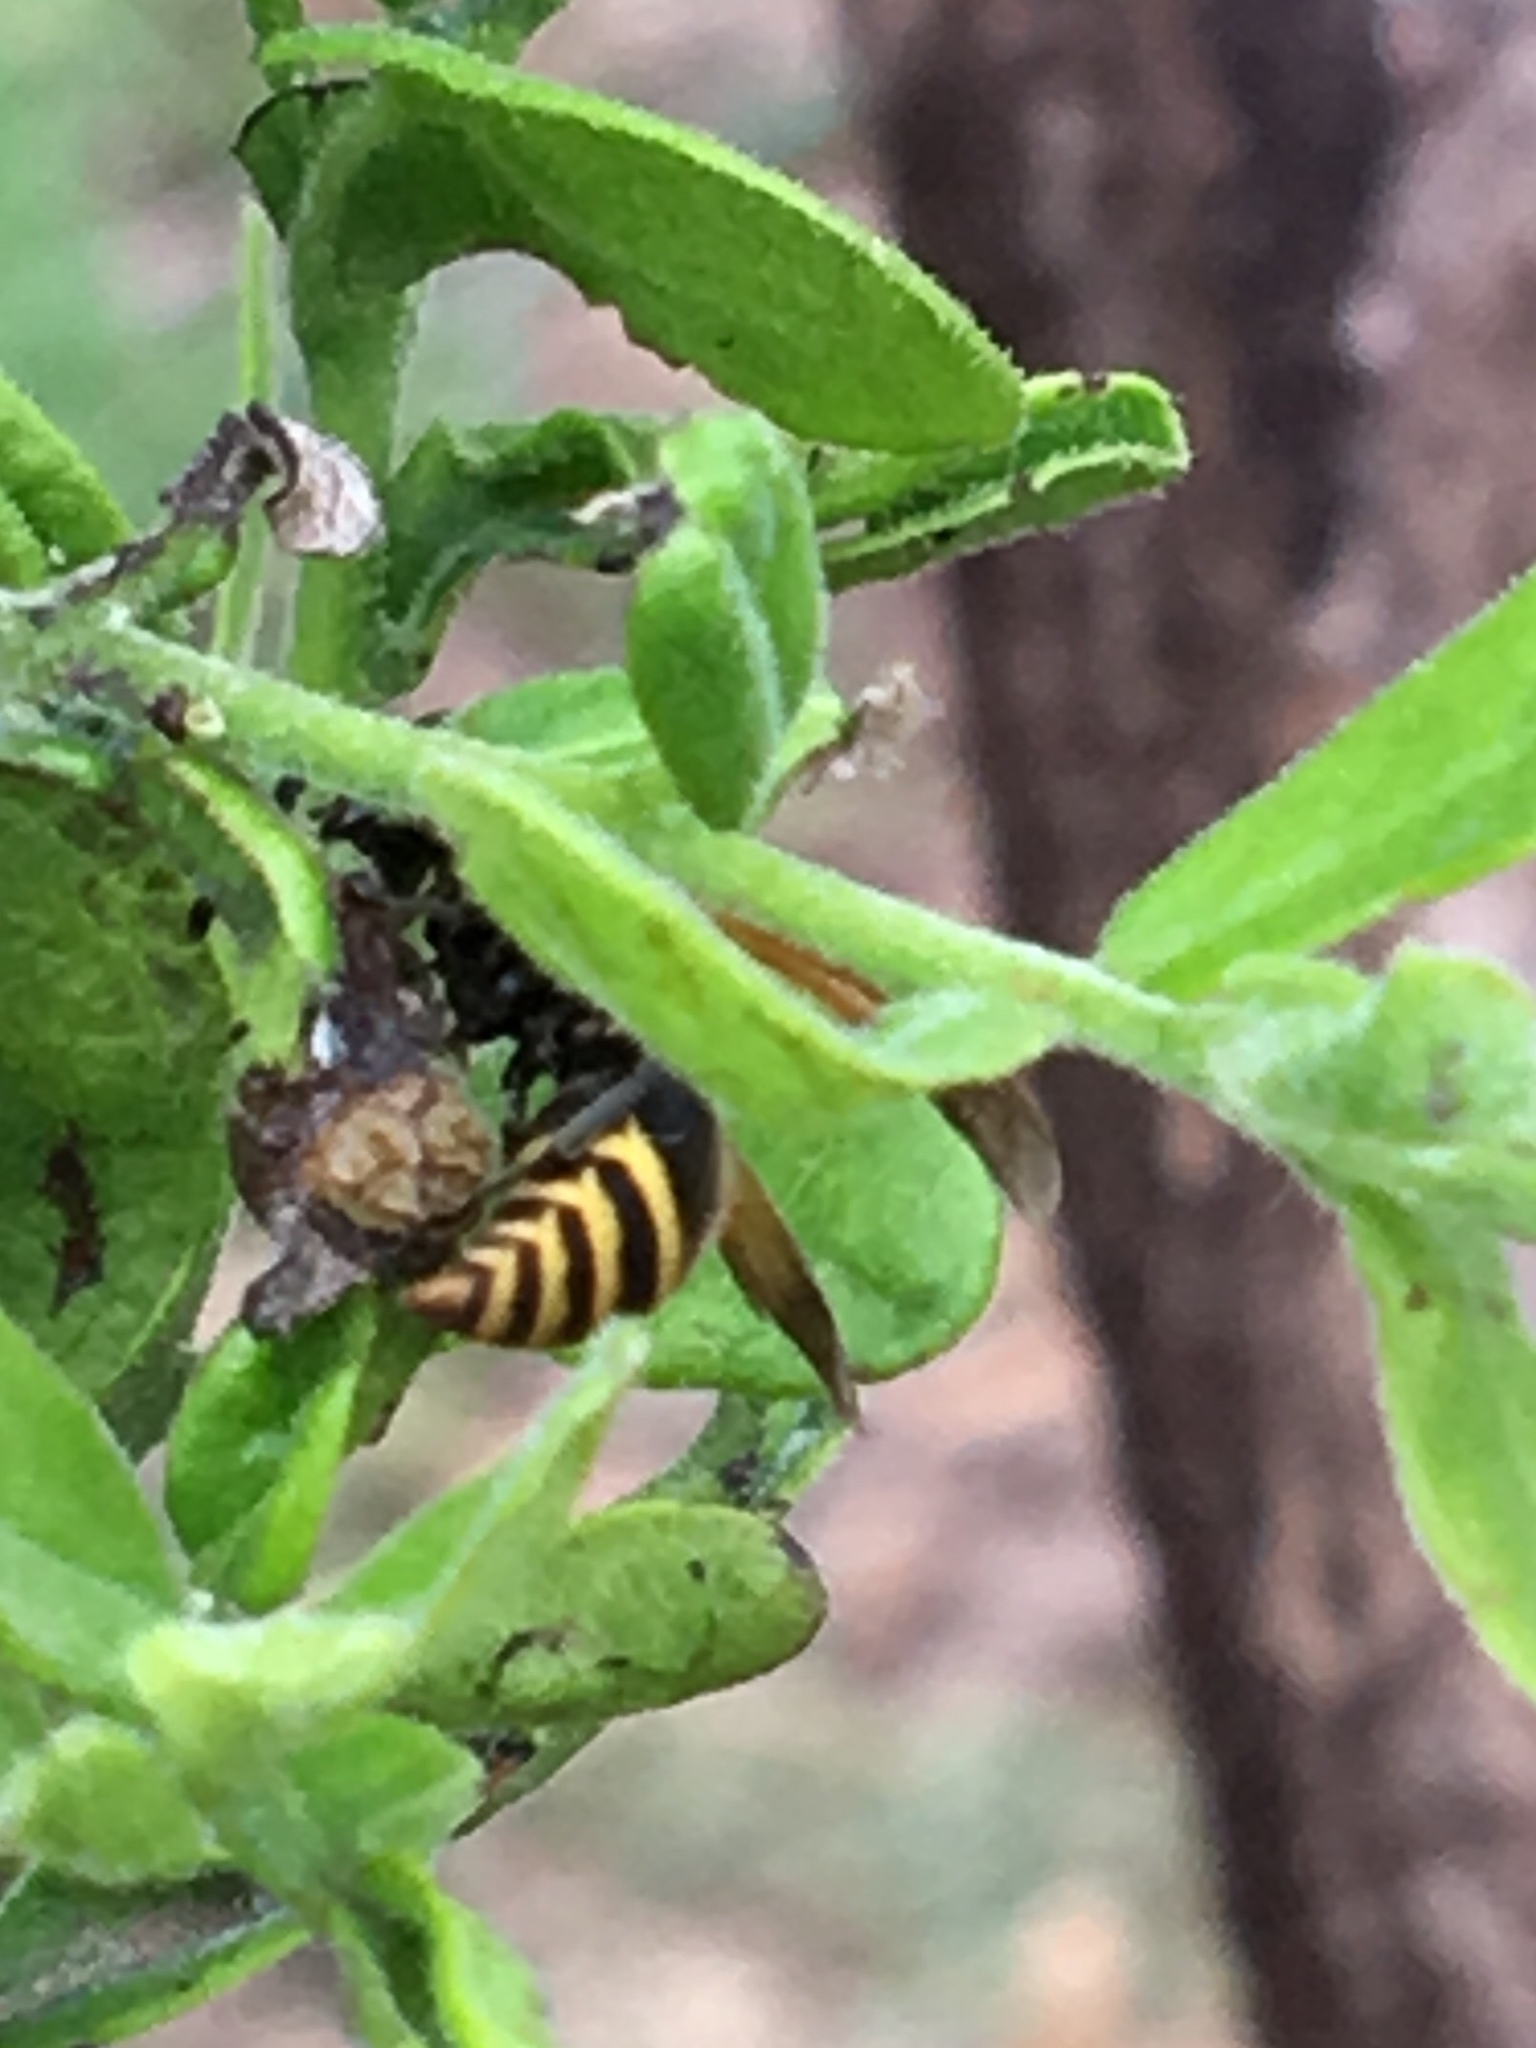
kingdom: Animalia
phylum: Arthropoda
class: Insecta
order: Hymenoptera
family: Vespidae
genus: Brachygastra
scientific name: Brachygastra mellifica
